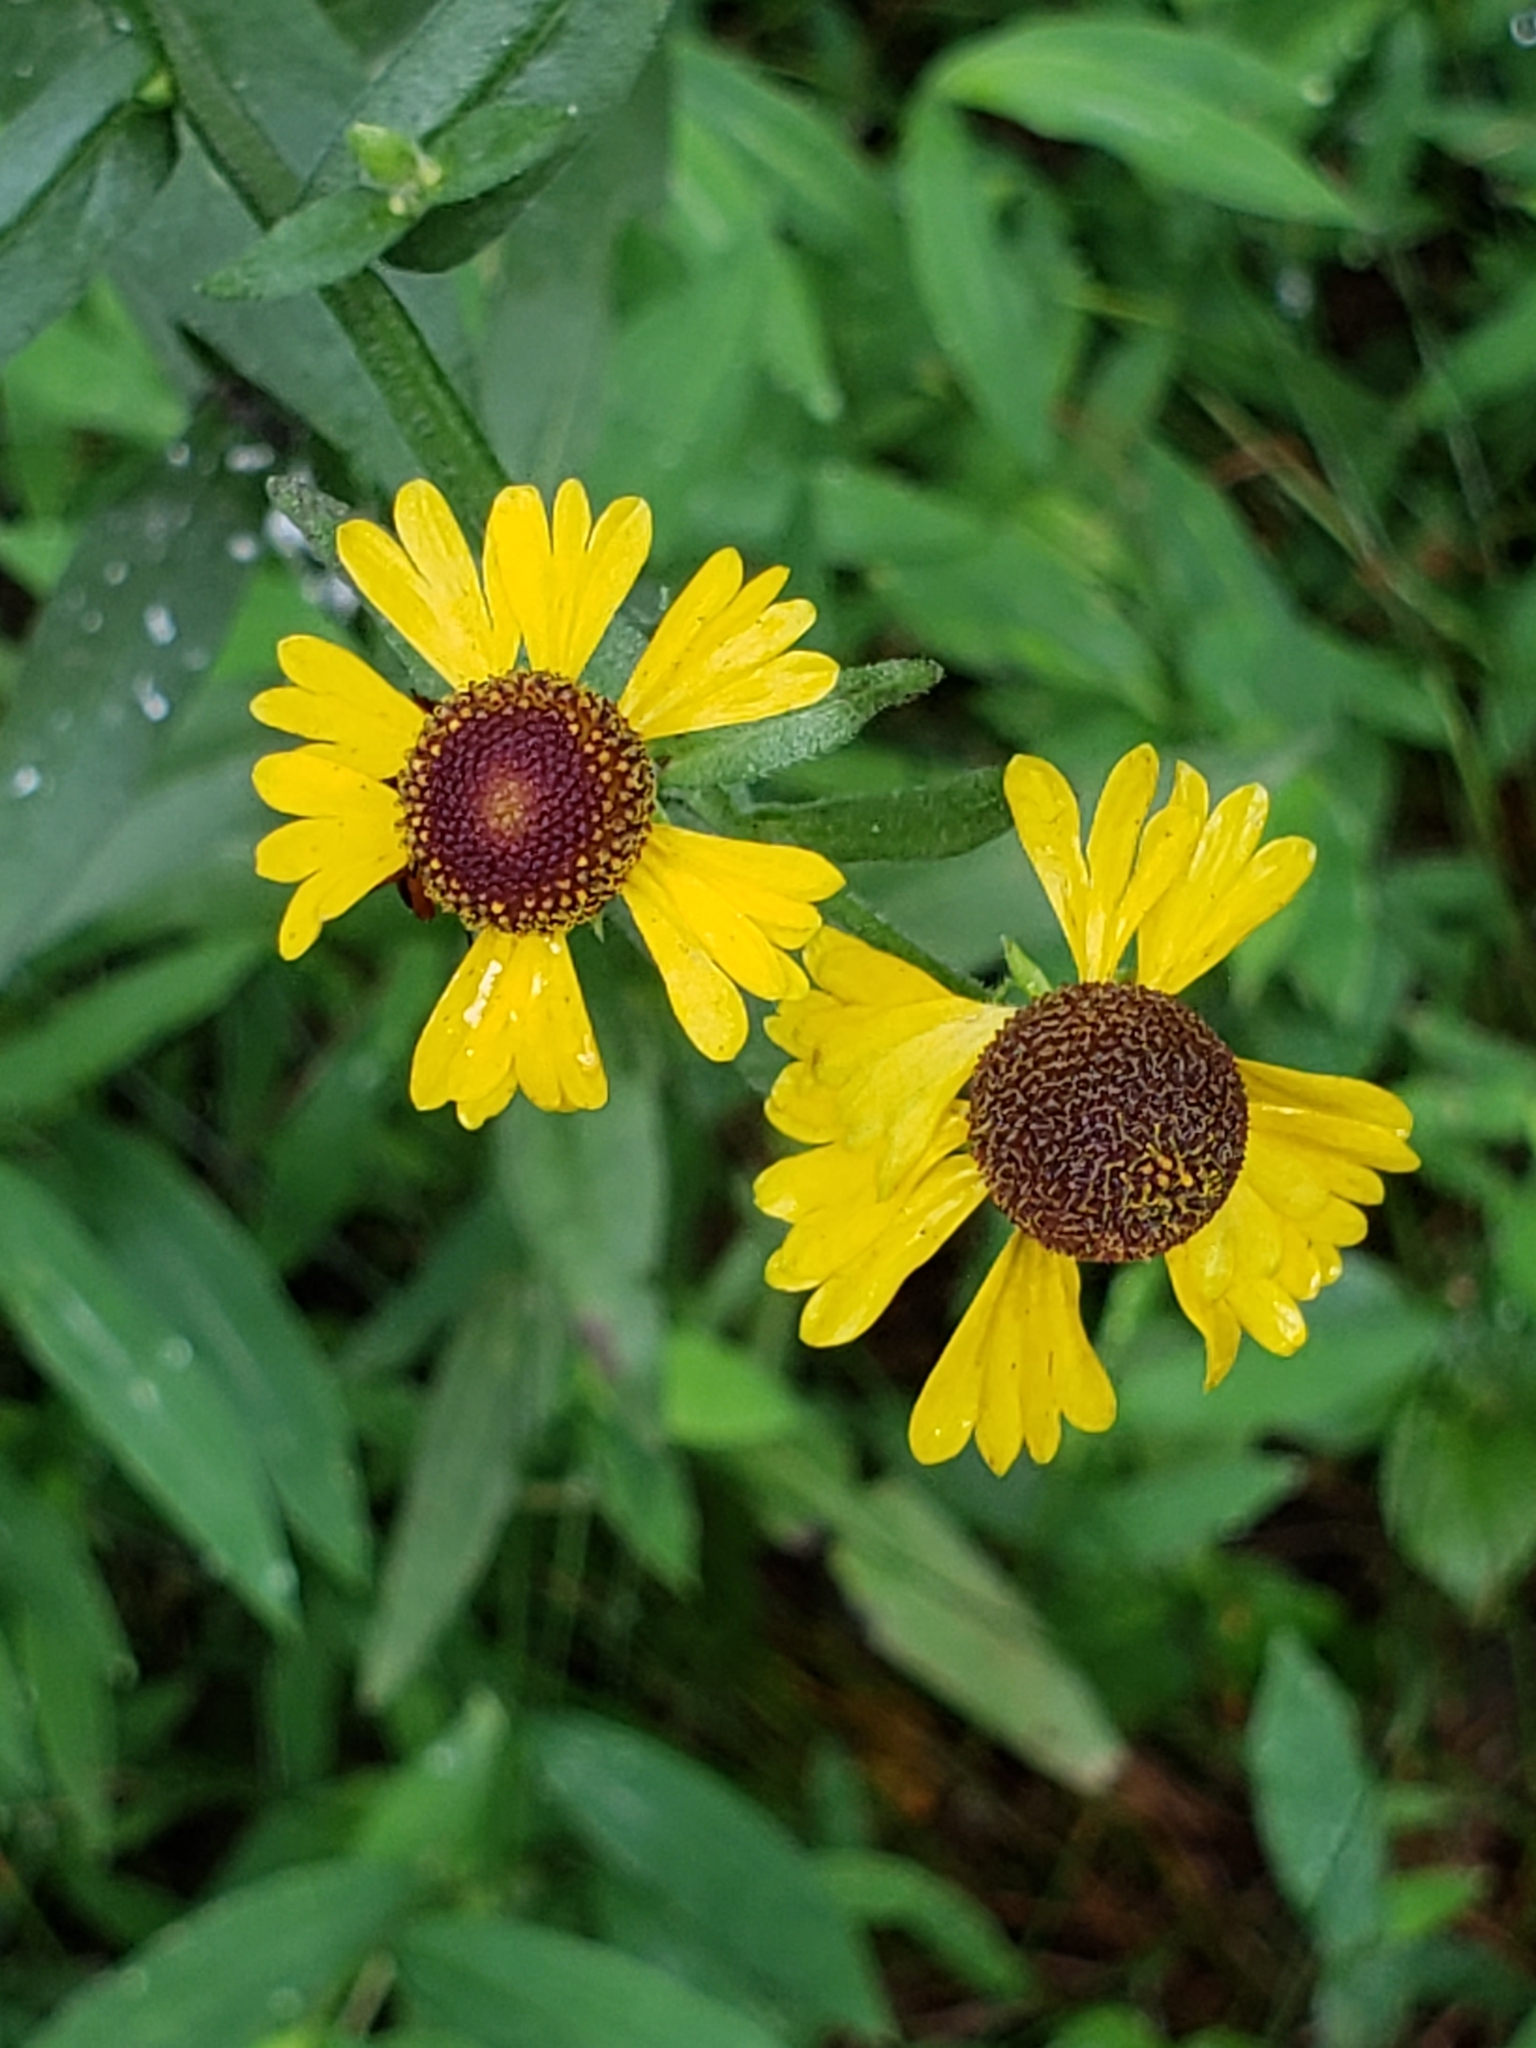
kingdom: Plantae
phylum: Tracheophyta
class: Magnoliopsida
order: Asterales
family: Asteraceae
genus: Helenium
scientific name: Helenium flexuosum
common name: Naked-flowered sneezeweed
